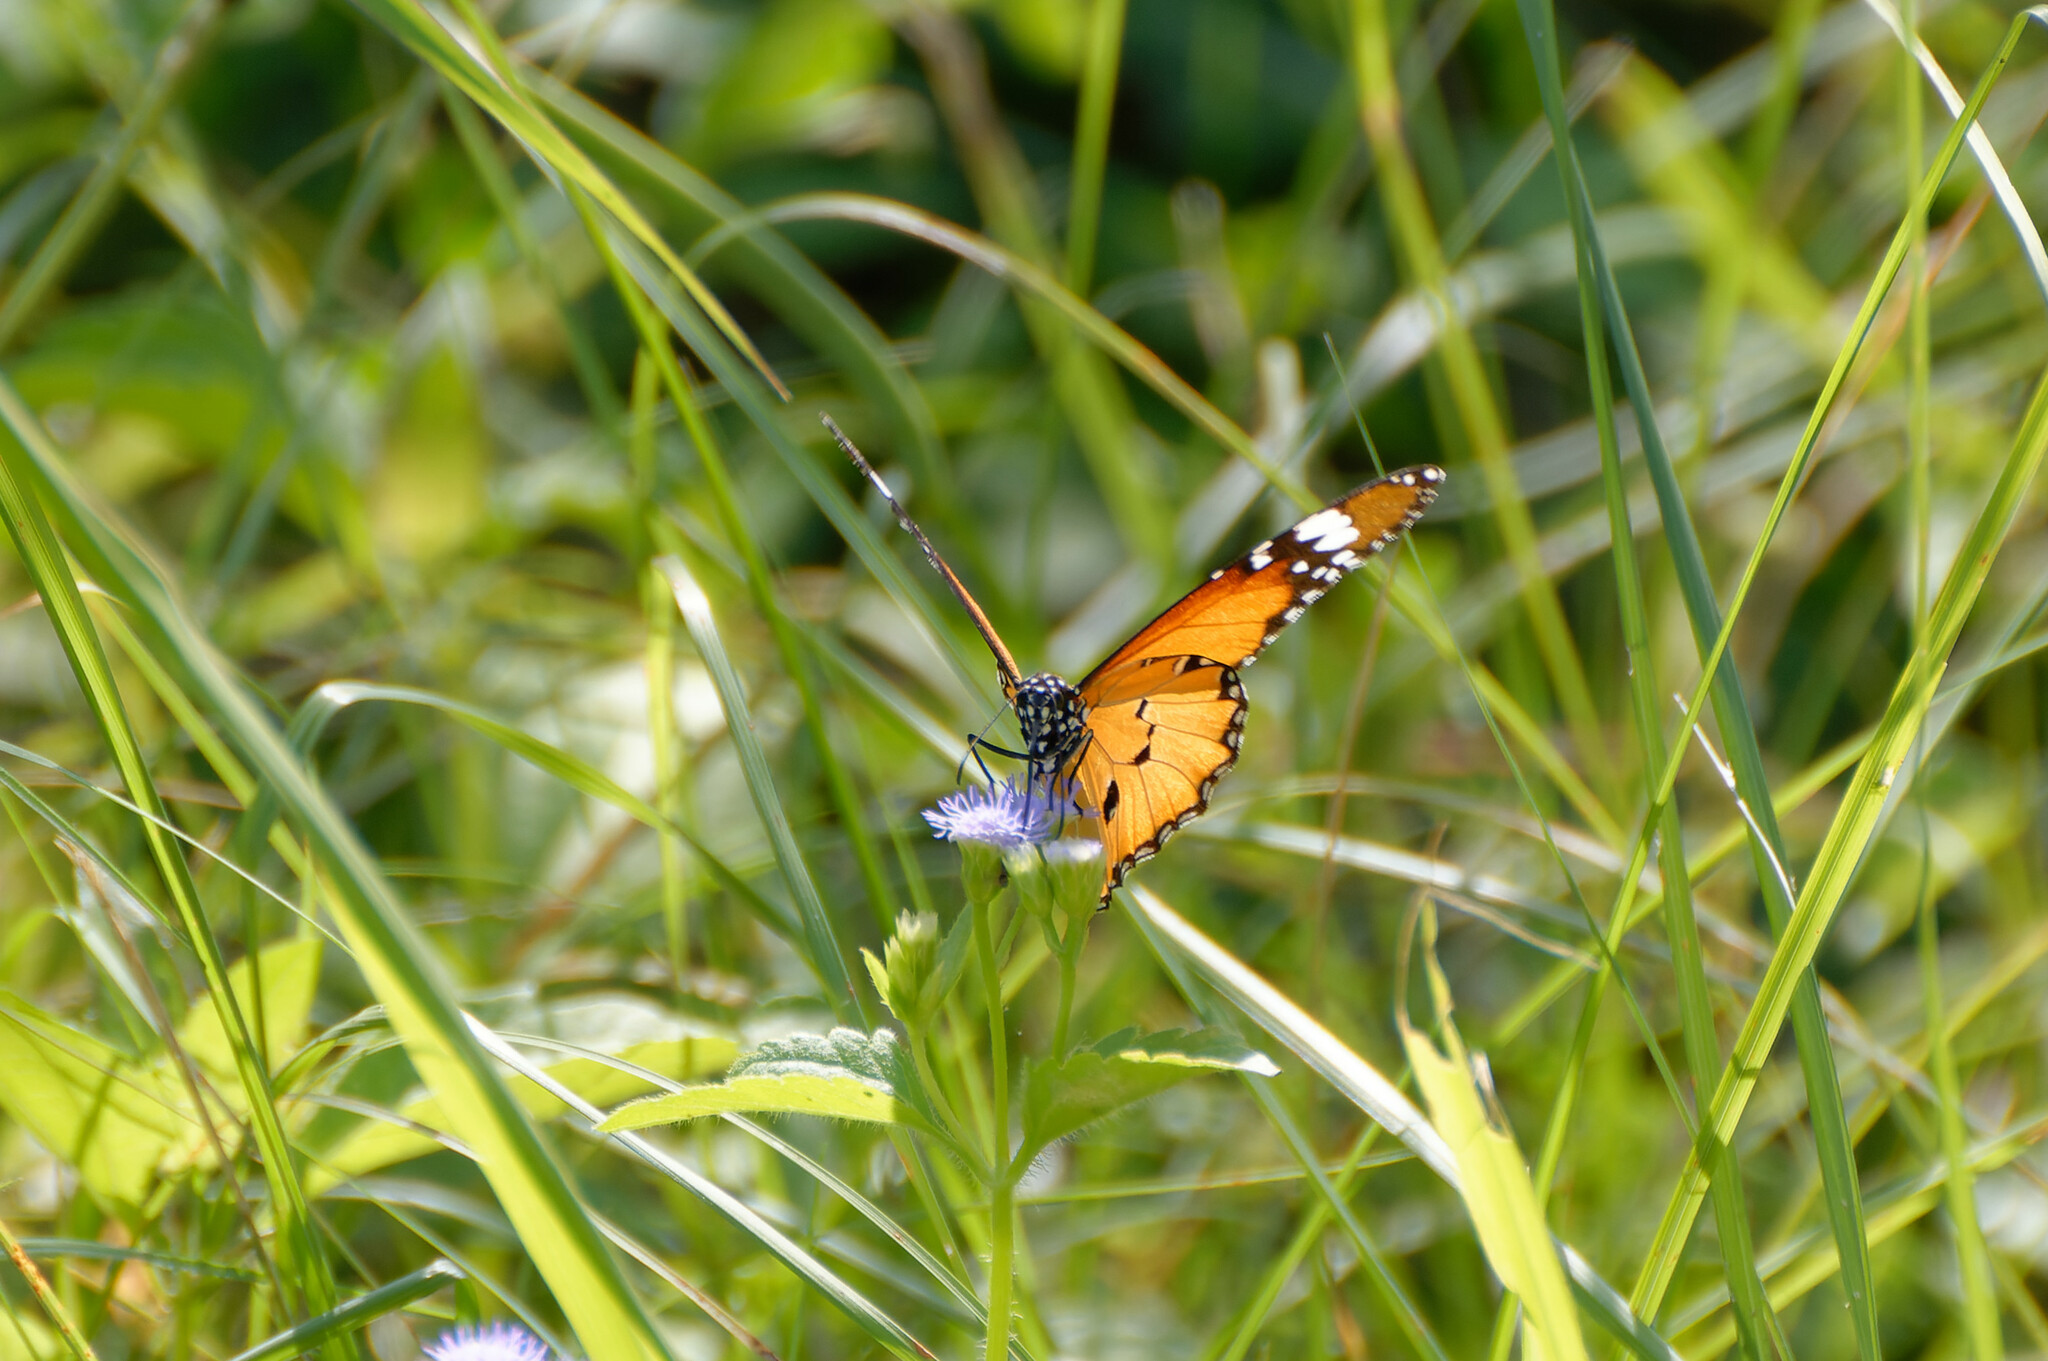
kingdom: Animalia
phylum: Arthropoda
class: Insecta
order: Lepidoptera
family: Nymphalidae
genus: Danaus
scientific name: Danaus chrysippus
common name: Plain tiger
